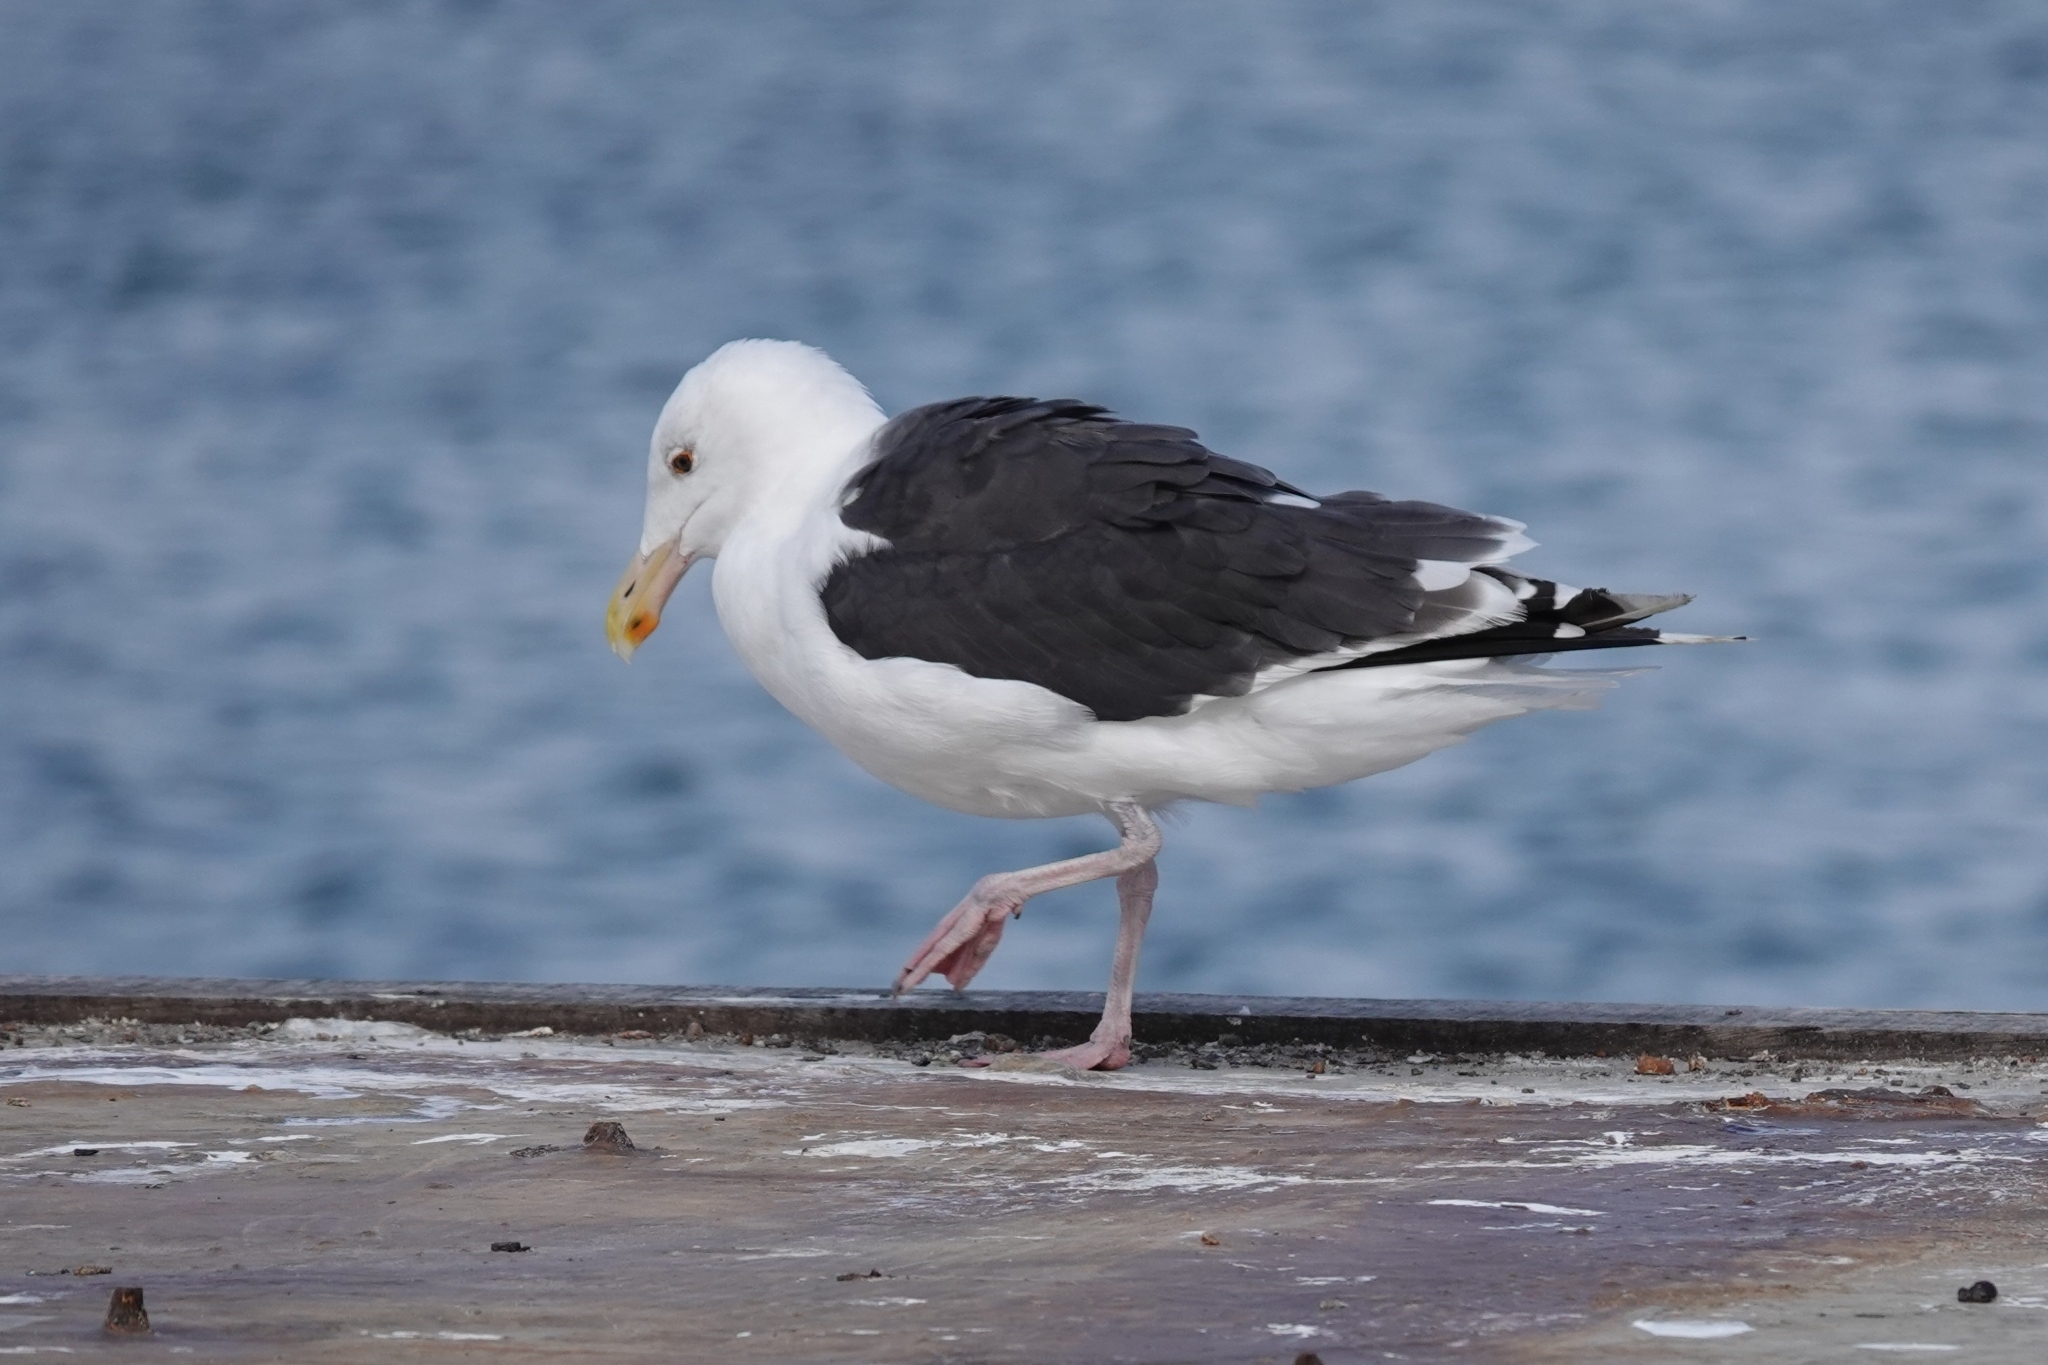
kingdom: Animalia
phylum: Chordata
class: Aves
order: Charadriiformes
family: Laridae
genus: Larus
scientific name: Larus marinus
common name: Great black-backed gull
